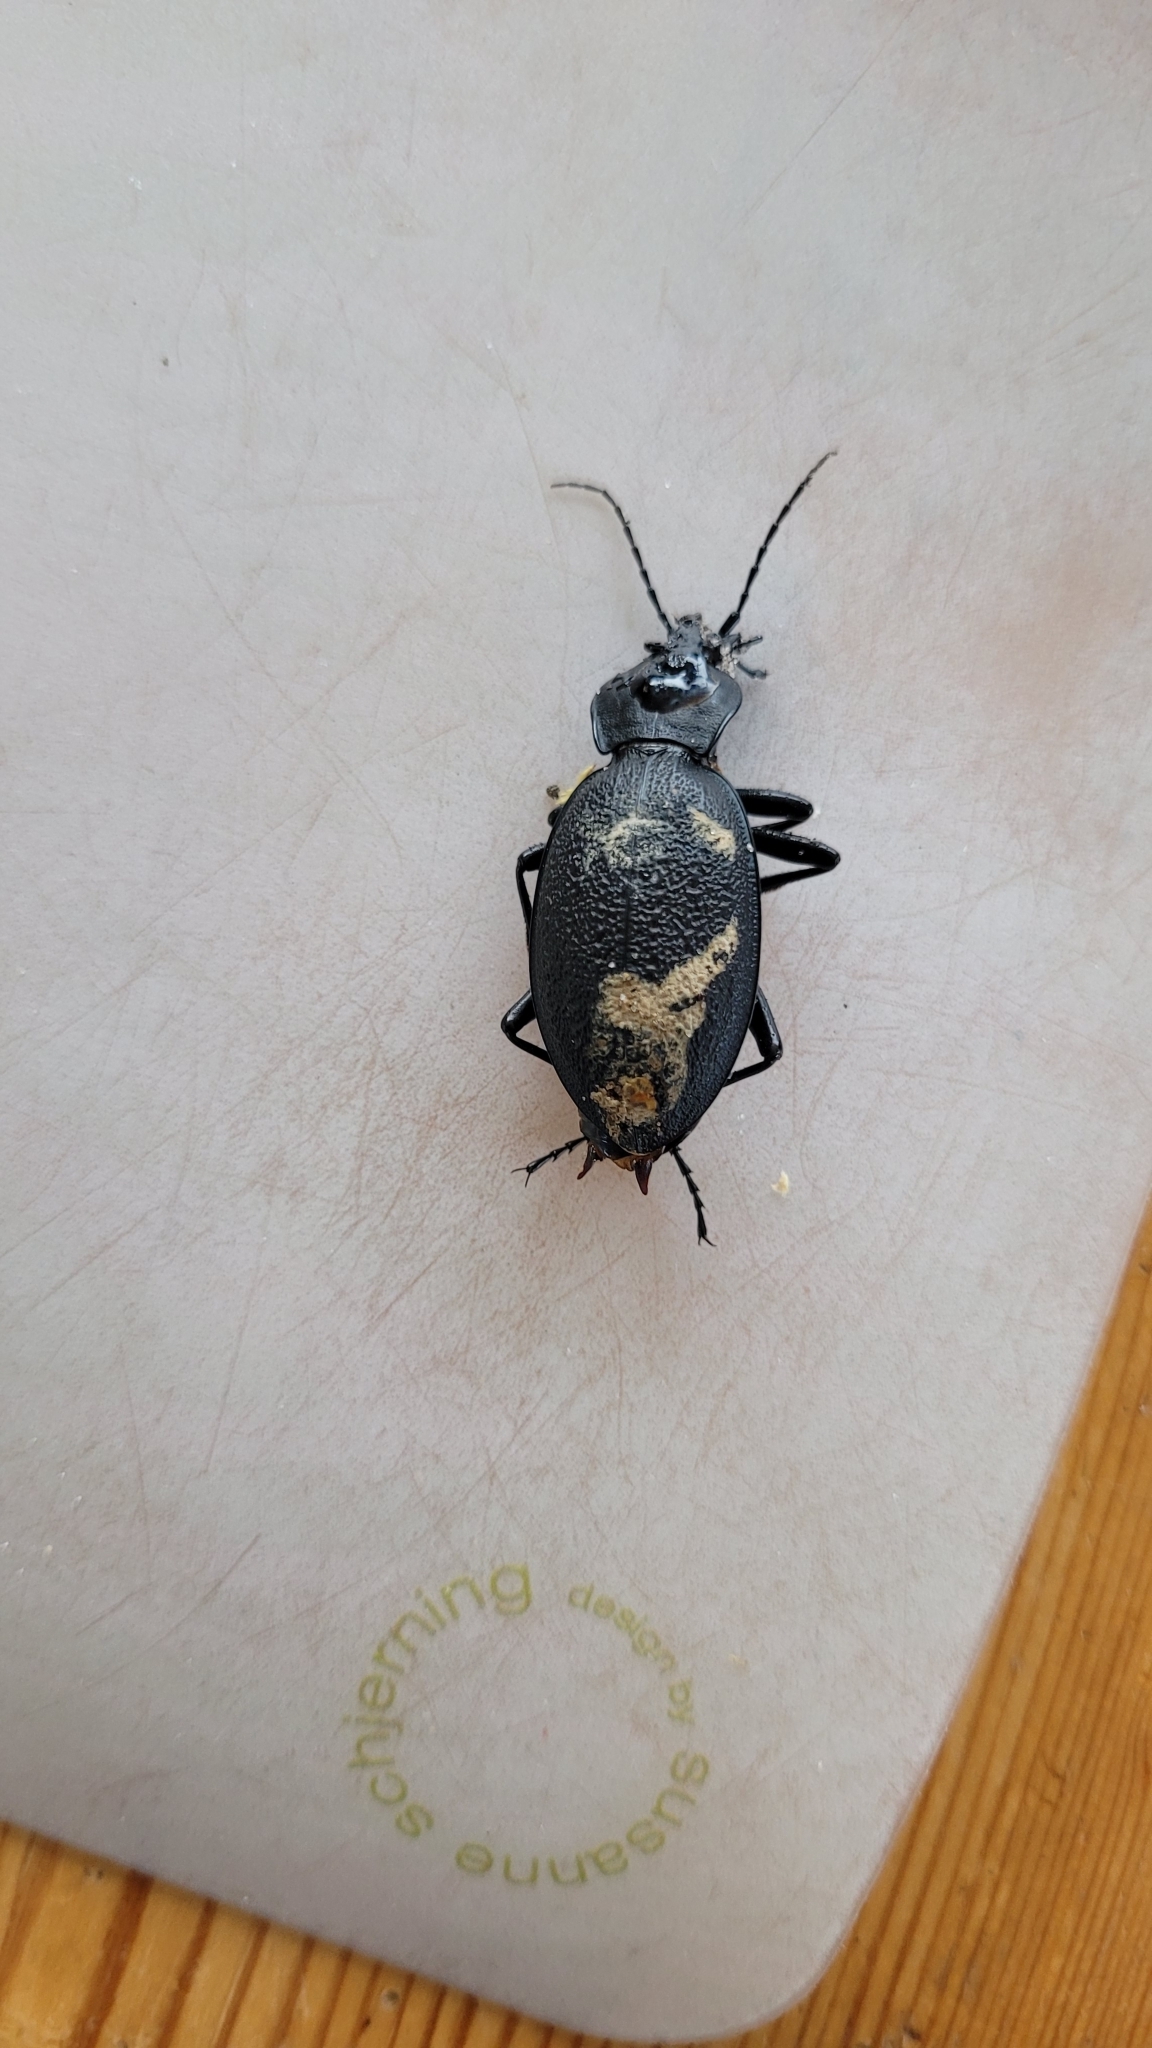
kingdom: Animalia
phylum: Arthropoda
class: Insecta
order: Coleoptera
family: Carabidae
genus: Carabus
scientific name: Carabus coriaceus
